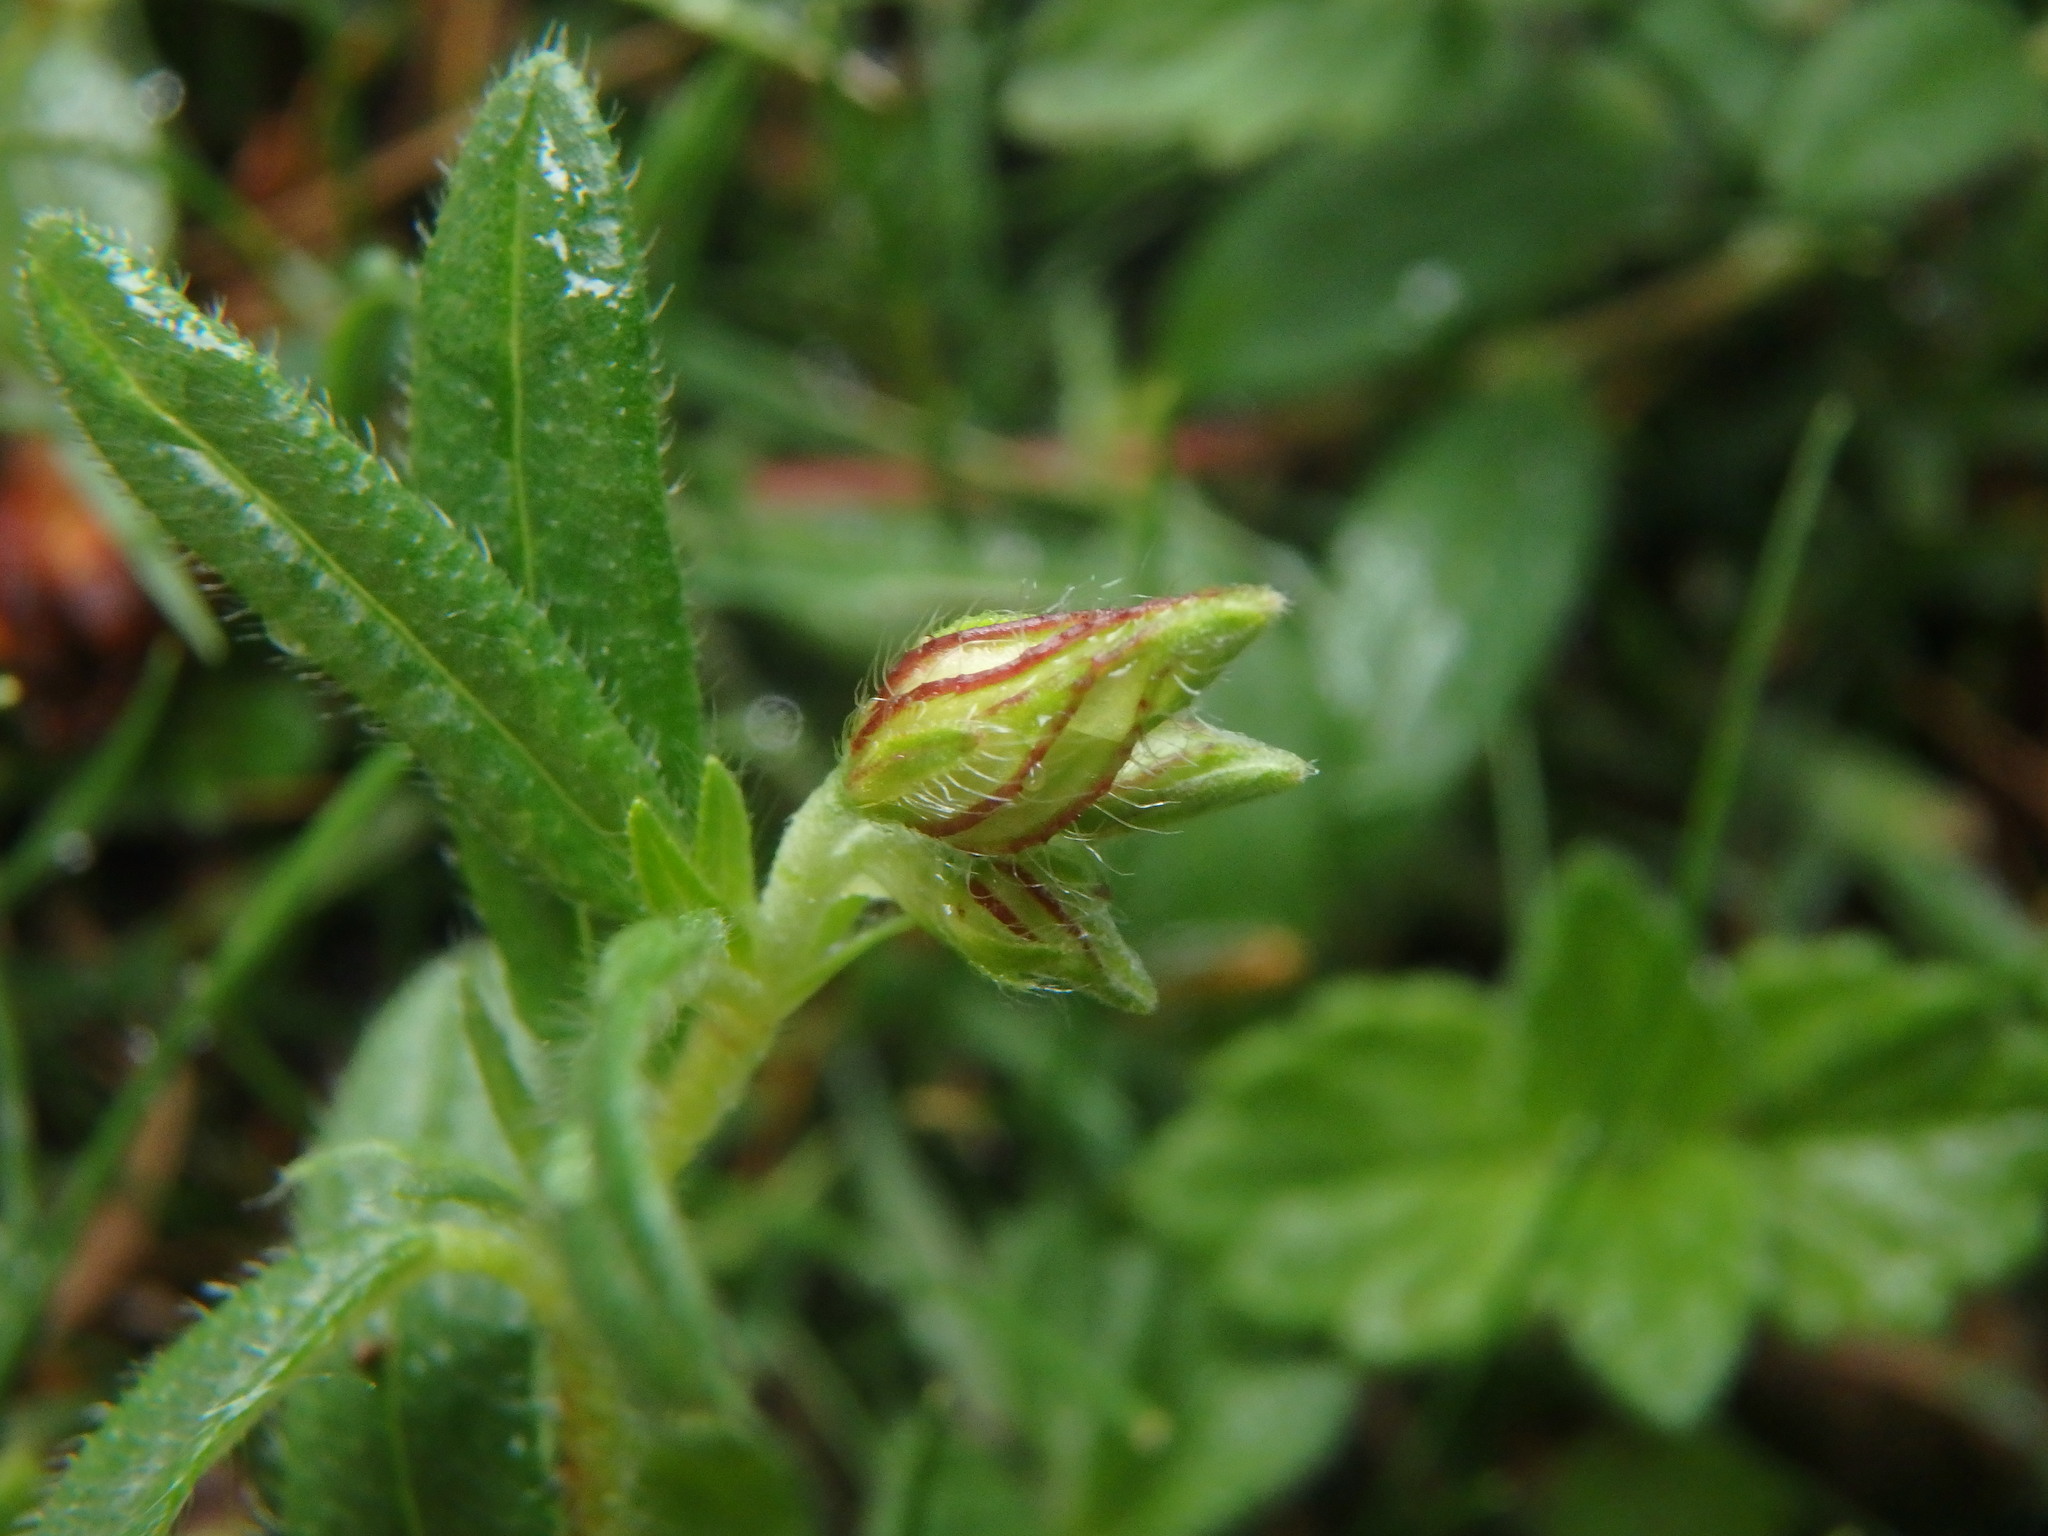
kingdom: Plantae
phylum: Tracheophyta
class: Magnoliopsida
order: Malvales
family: Cistaceae
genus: Helianthemum
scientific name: Helianthemum nummularium
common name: Common rock-rose
